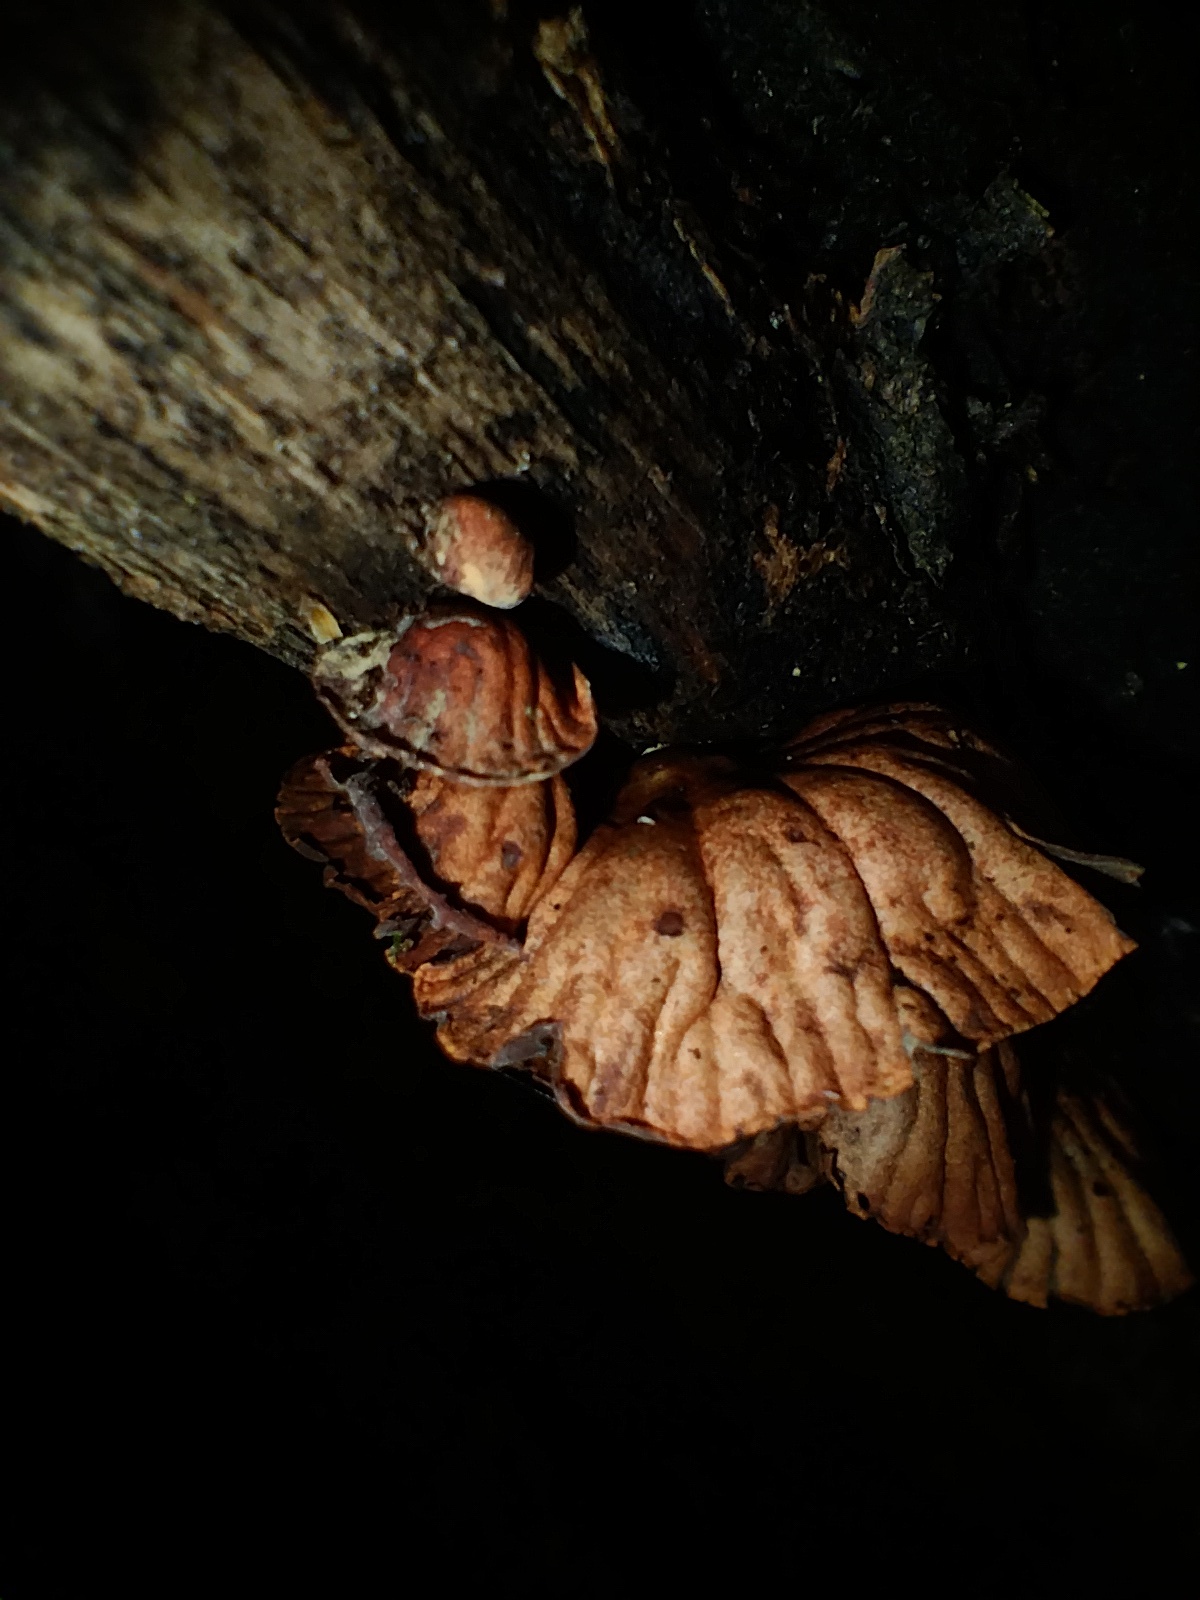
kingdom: Fungi
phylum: Basidiomycota
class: Agaricomycetes
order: Agaricales
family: Omphalotaceae
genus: Anthracophyllum
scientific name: Anthracophyllum archeri
